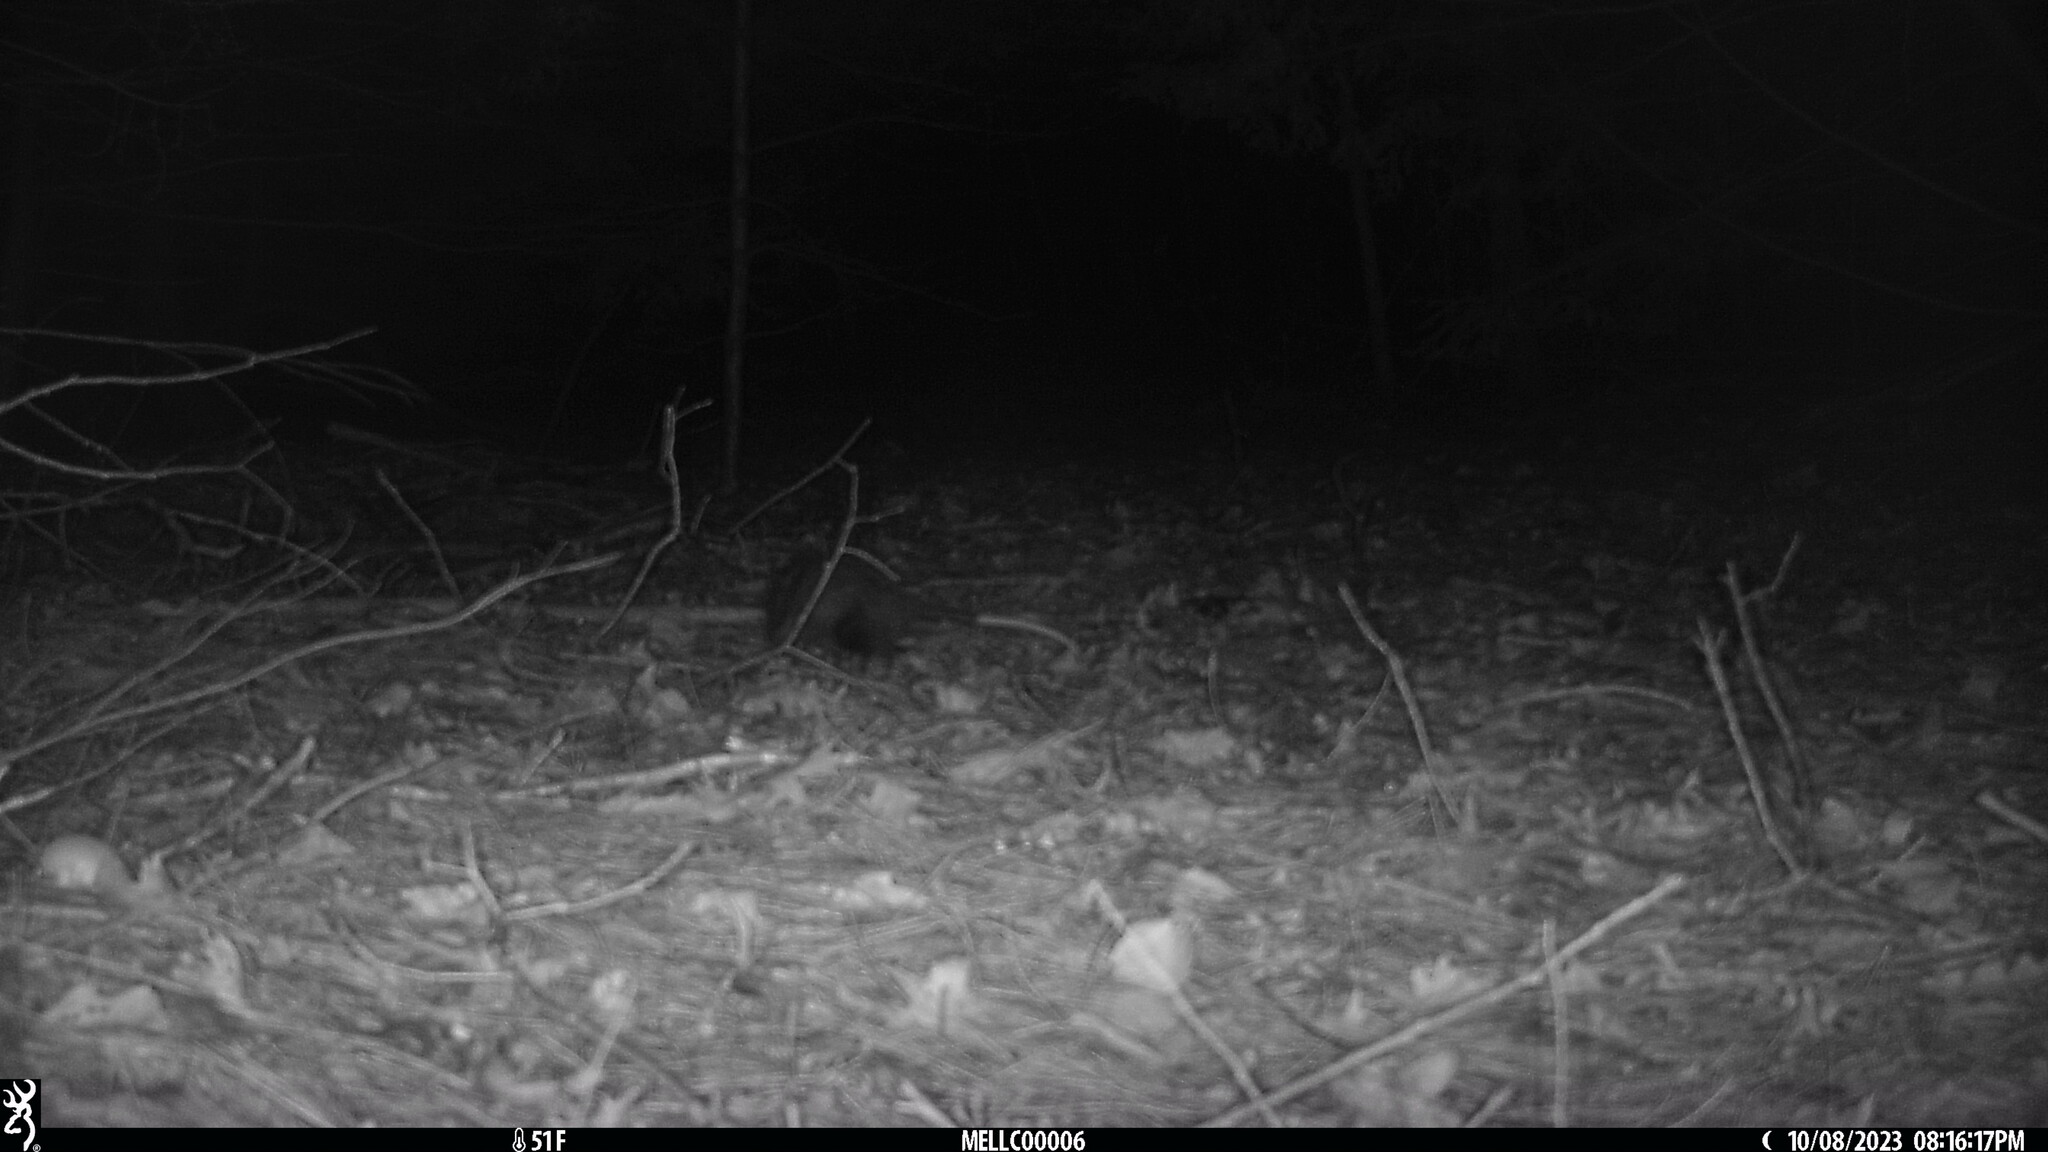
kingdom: Animalia
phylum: Chordata
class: Mammalia
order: Didelphimorphia
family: Didelphidae
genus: Didelphis
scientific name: Didelphis virginiana
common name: Virginia opossum
